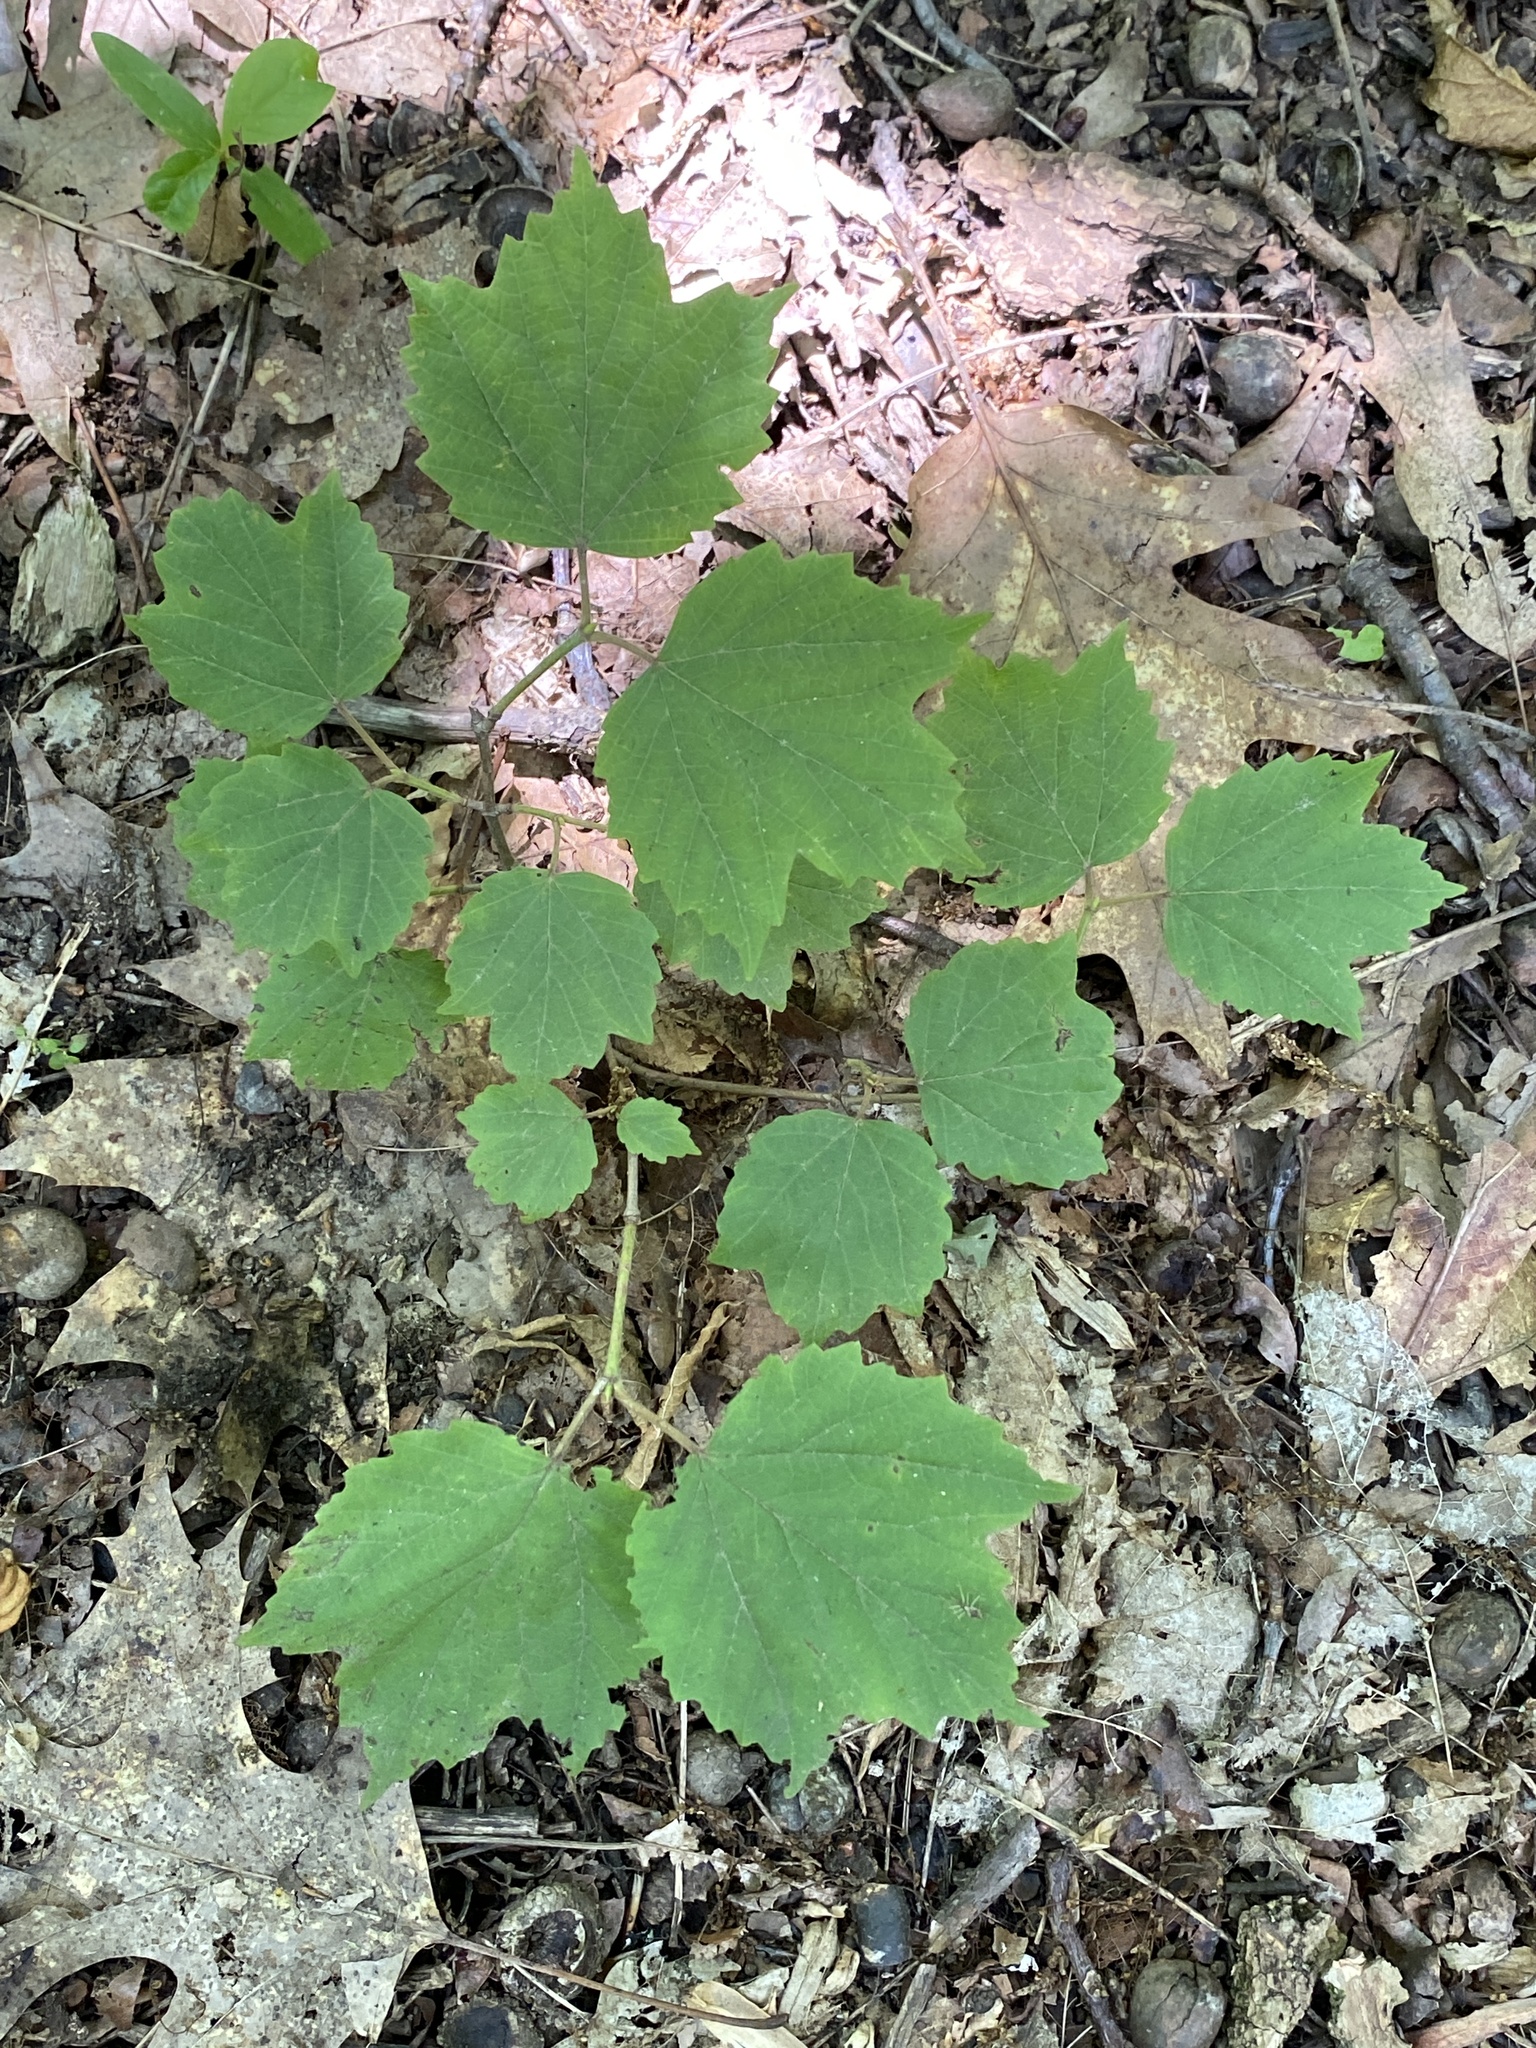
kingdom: Plantae
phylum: Tracheophyta
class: Magnoliopsida
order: Dipsacales
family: Viburnaceae
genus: Viburnum
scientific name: Viburnum acerifolium
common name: Dockmackie
